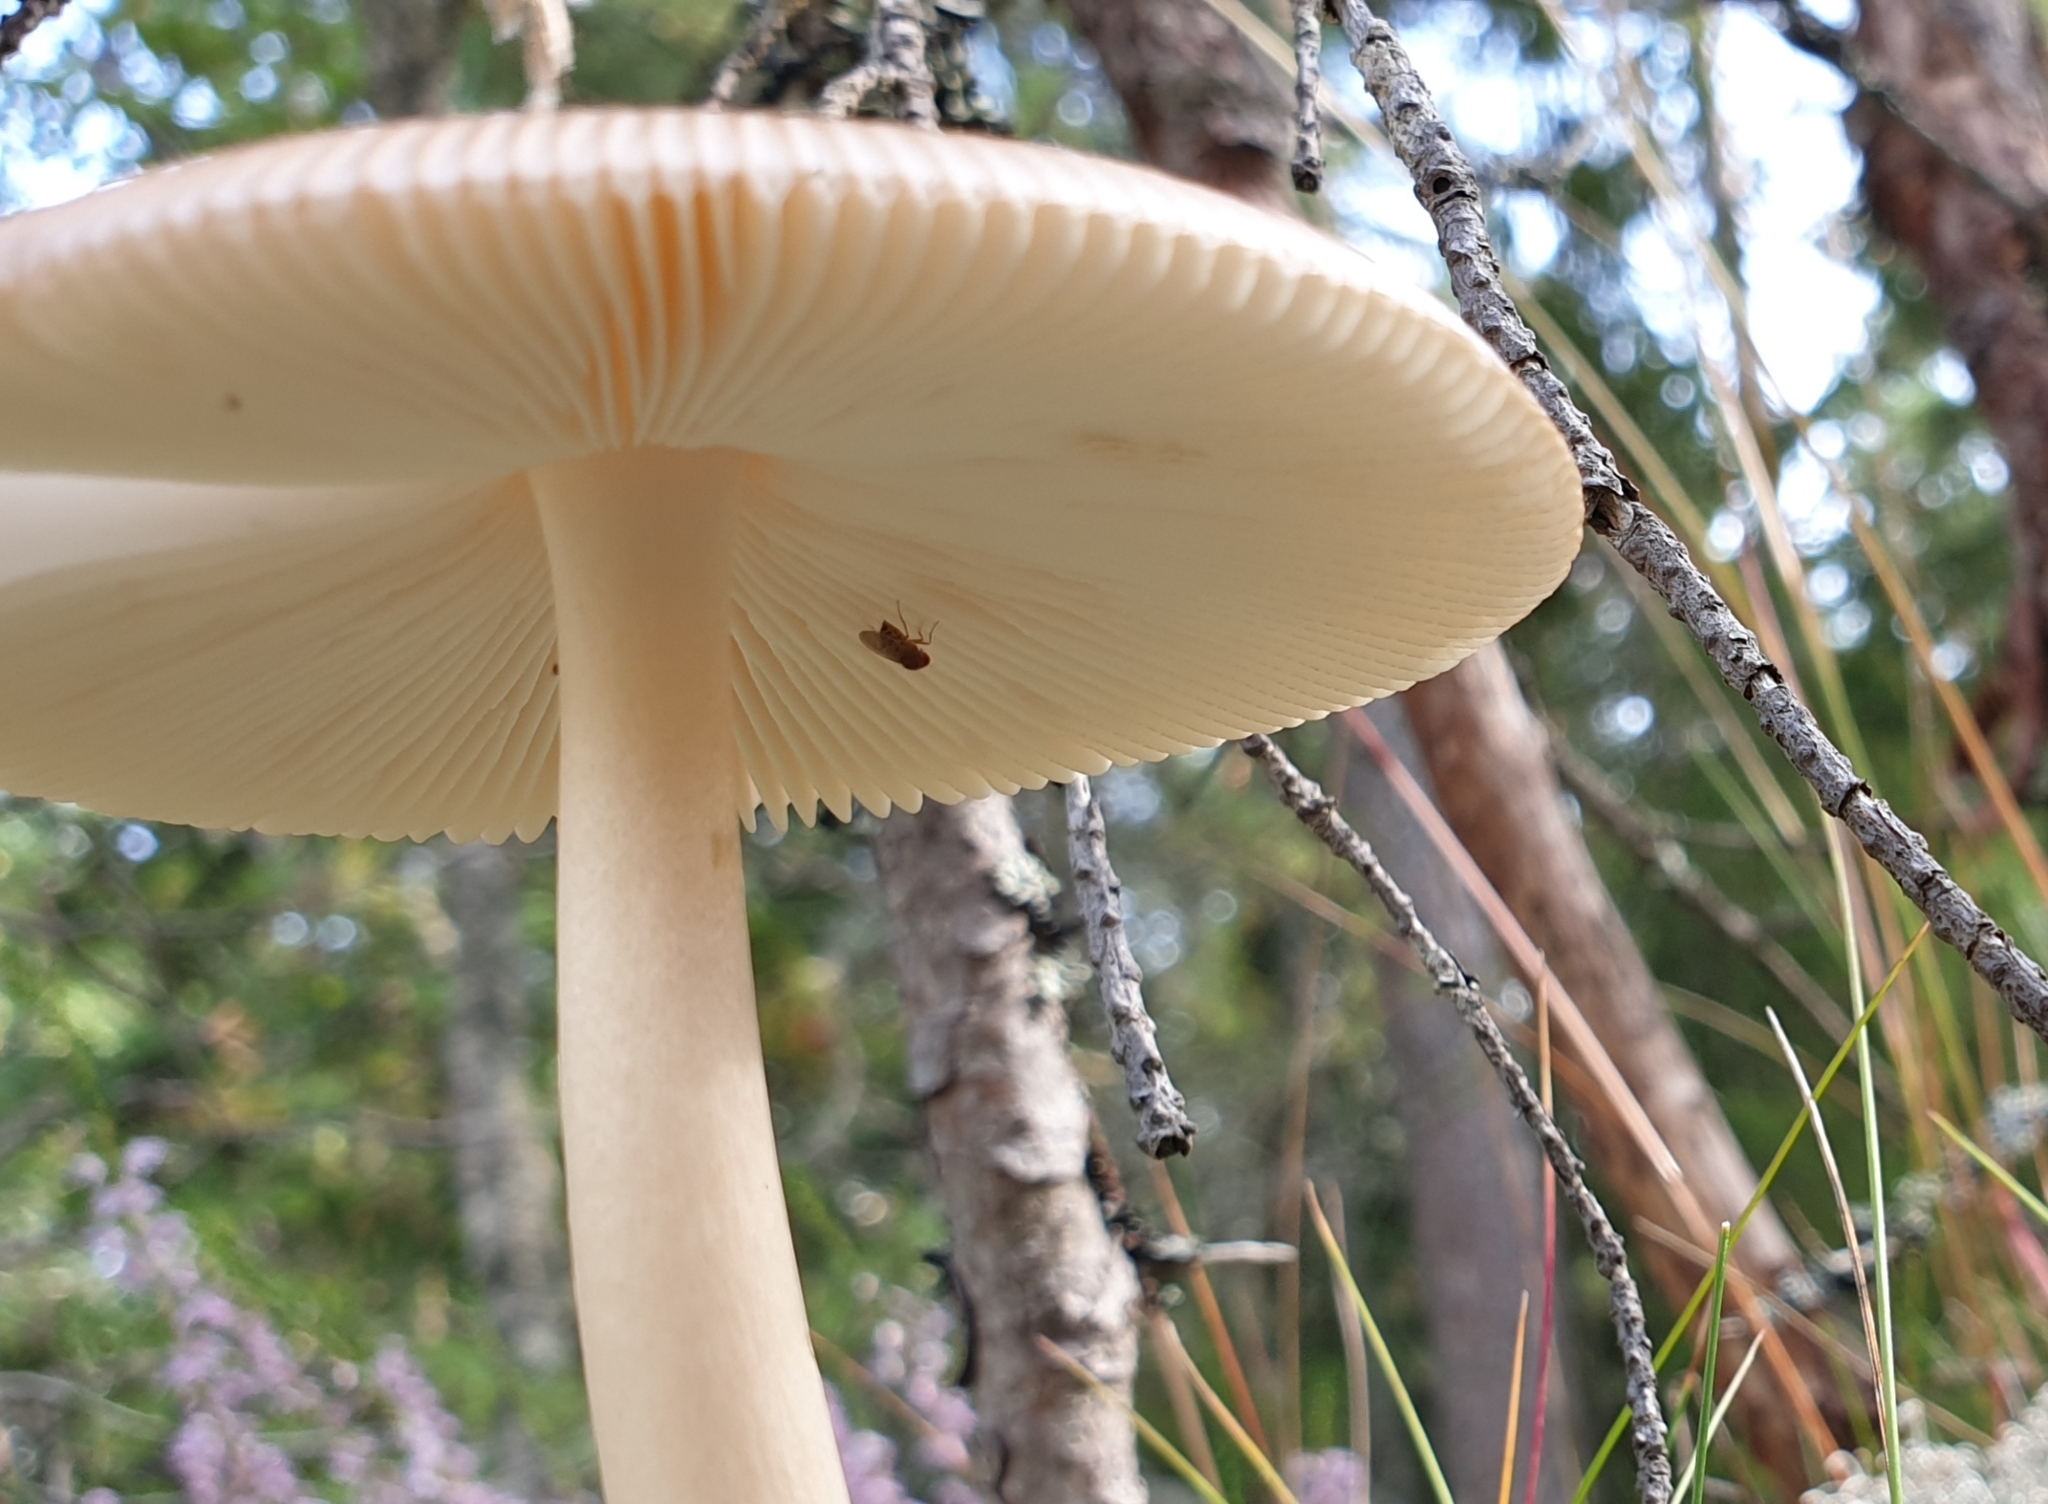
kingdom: Fungi
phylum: Basidiomycota
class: Agaricomycetes
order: Agaricales
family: Amanitaceae
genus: Amanita
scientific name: Amanita fulva
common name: Tawny grisette
